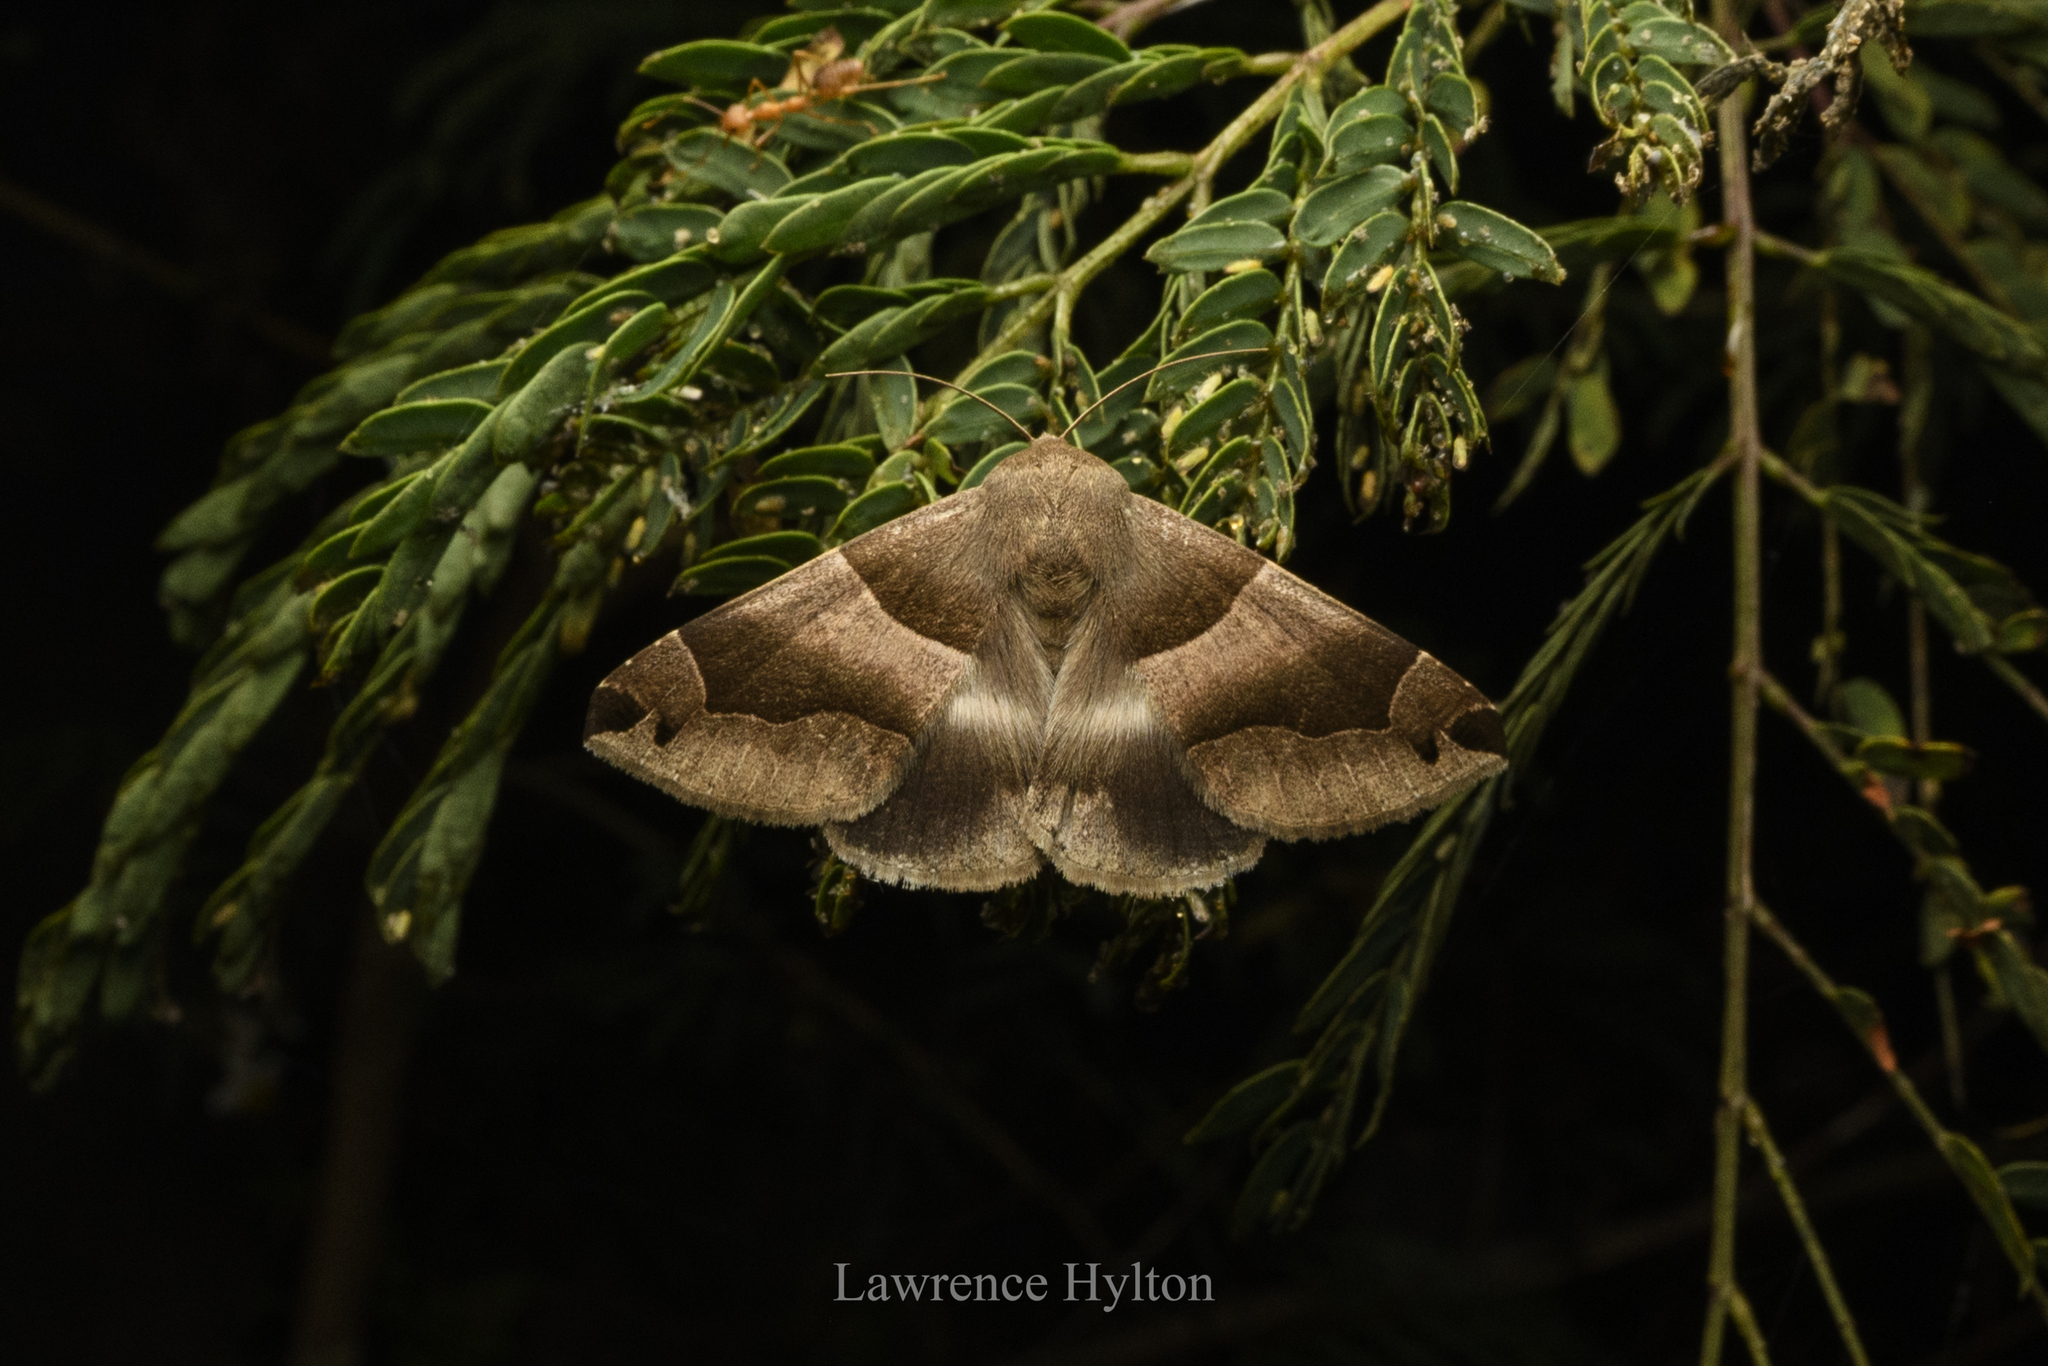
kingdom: Animalia
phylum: Arthropoda
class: Insecta
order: Lepidoptera
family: Erebidae
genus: Dysgonia
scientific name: Dysgonia stuposa
